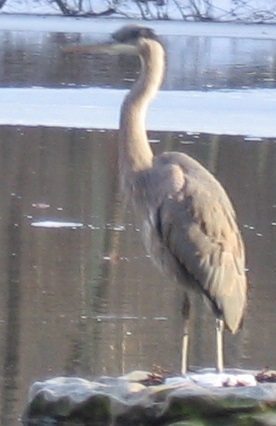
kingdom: Animalia
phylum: Chordata
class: Aves
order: Pelecaniformes
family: Ardeidae
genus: Ardea
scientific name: Ardea herodias
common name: Great blue heron
